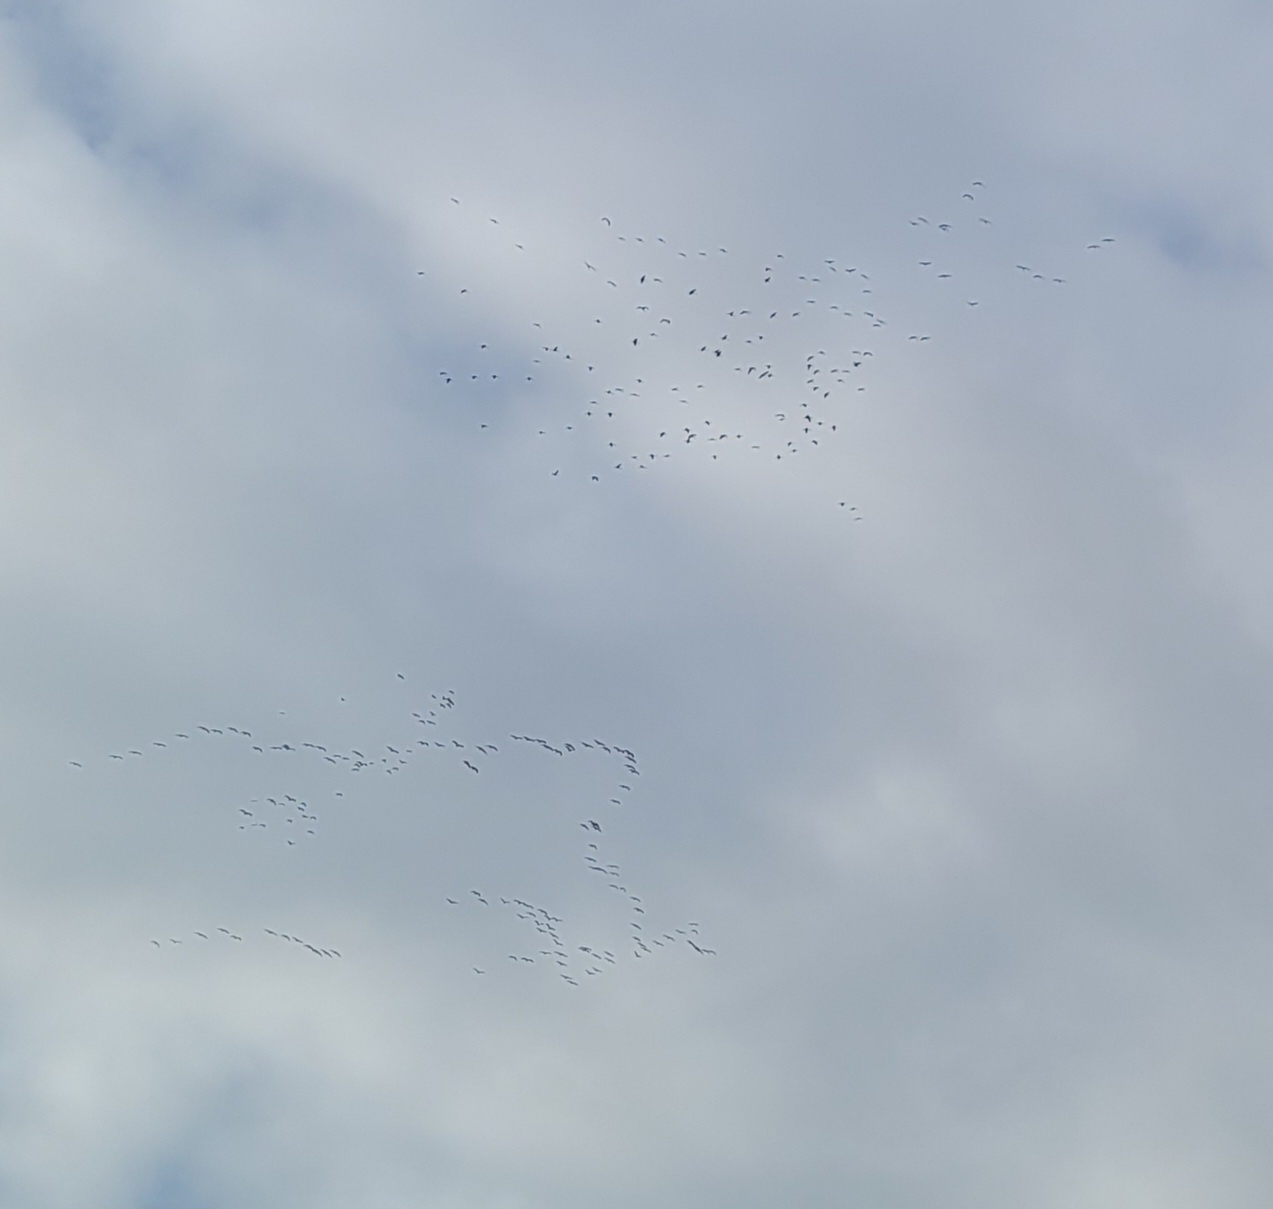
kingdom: Animalia
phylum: Chordata
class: Aves
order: Gruiformes
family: Gruidae
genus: Grus
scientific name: Grus grus
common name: Common crane
